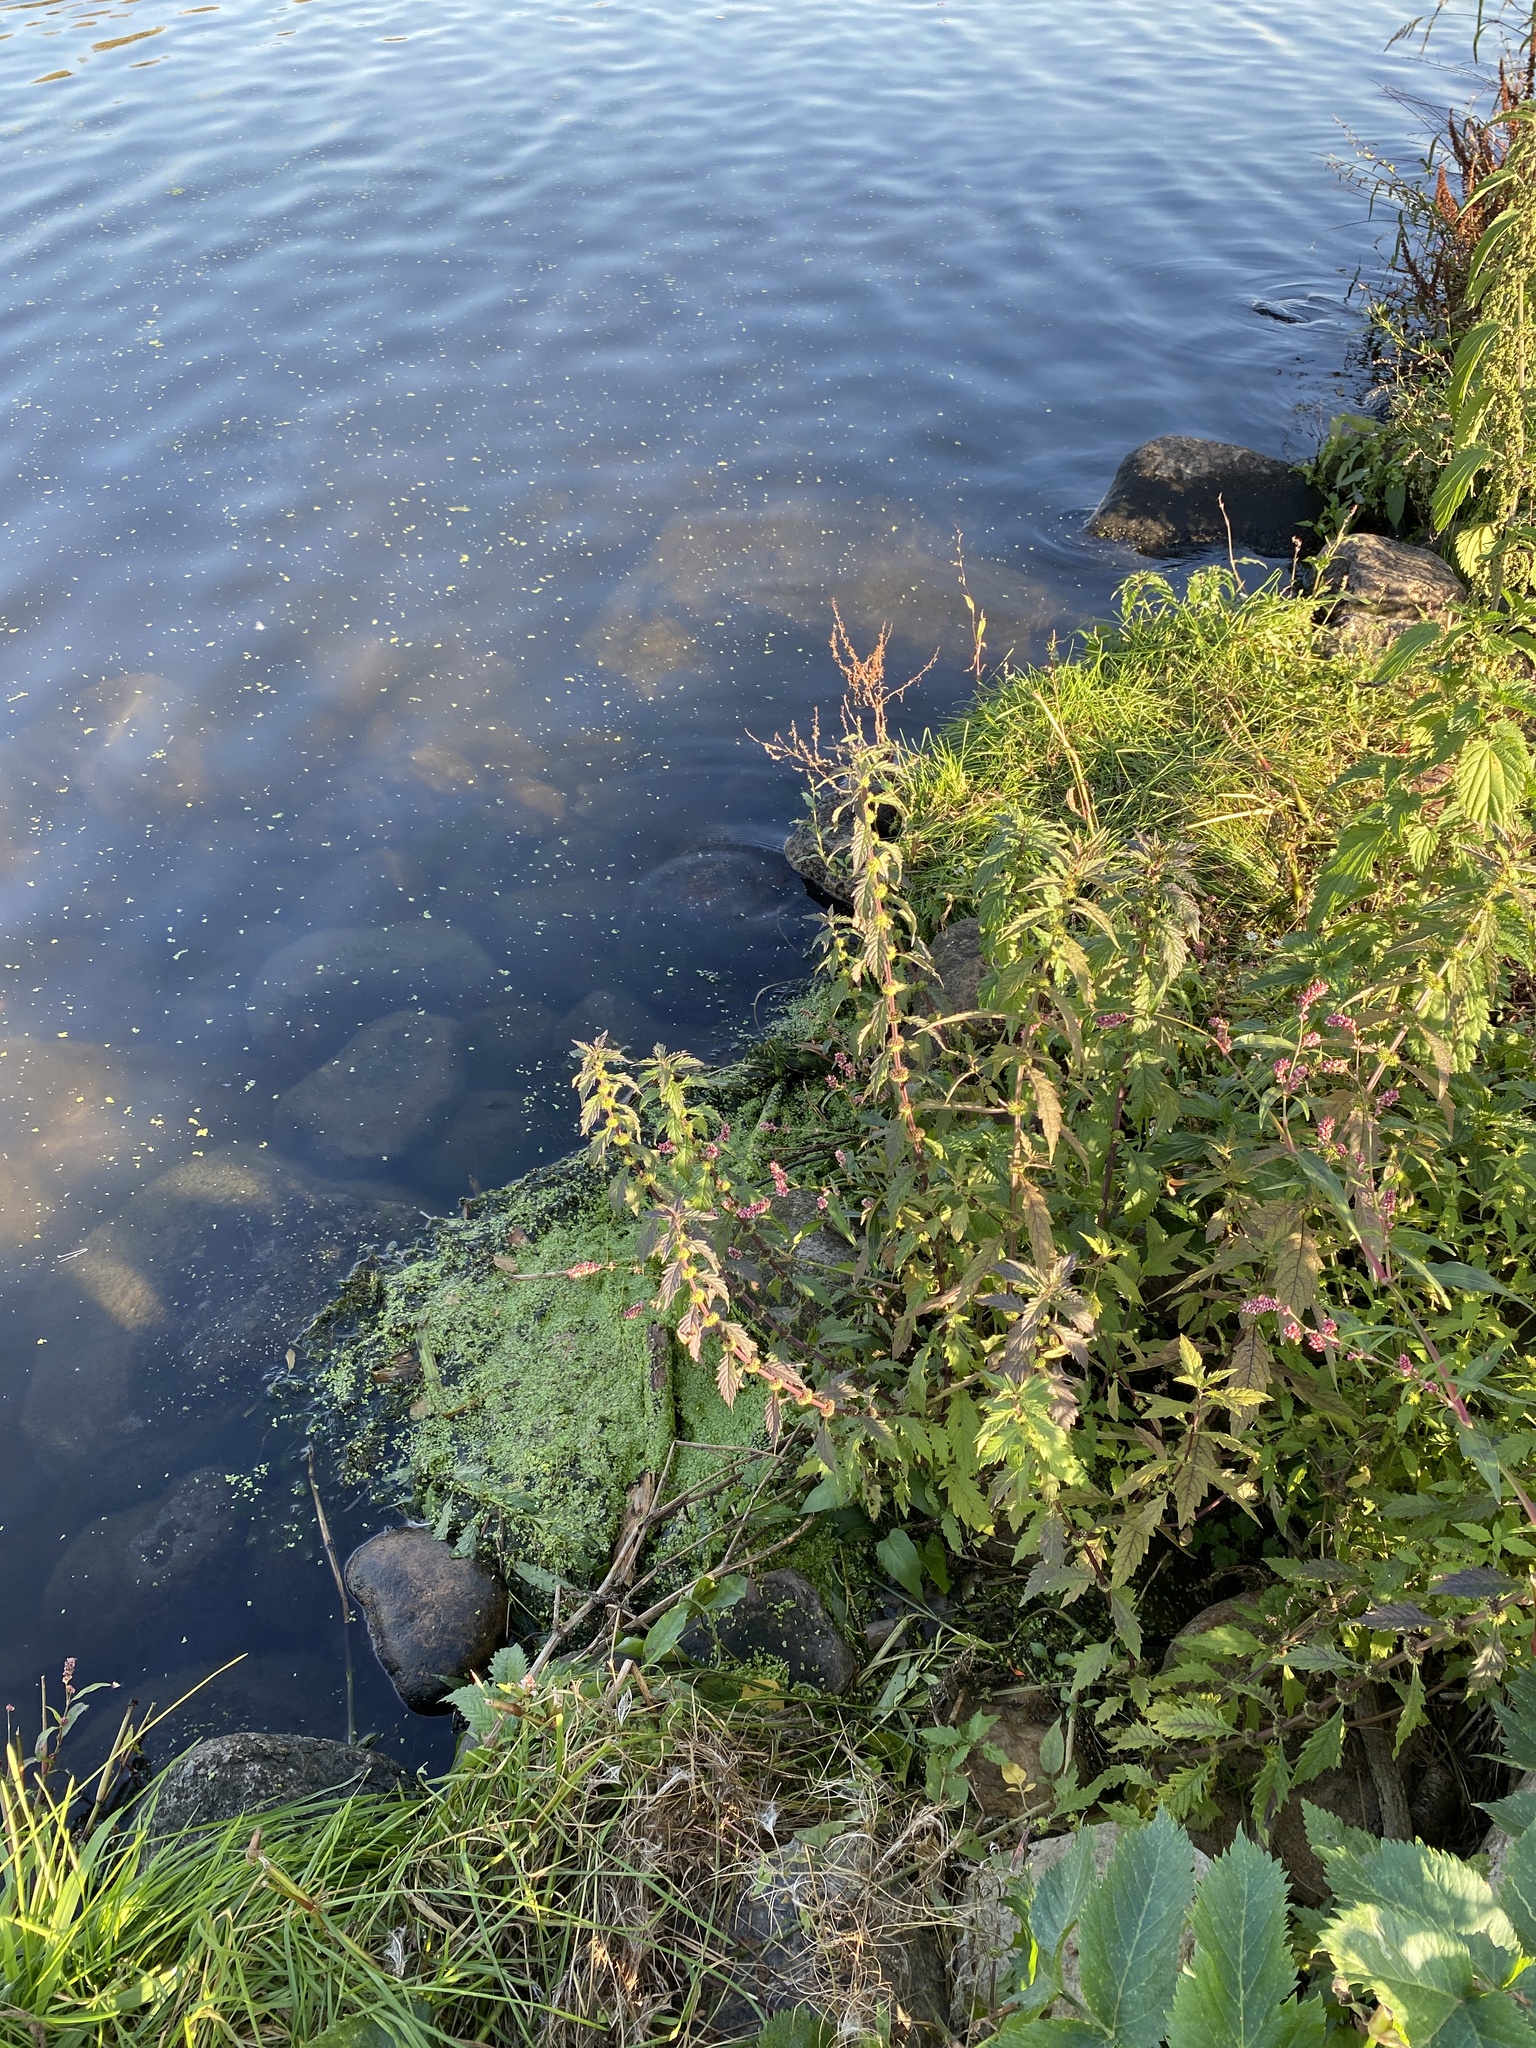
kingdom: Plantae
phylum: Tracheophyta
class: Magnoliopsida
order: Lamiales
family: Lamiaceae
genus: Lycopus
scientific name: Lycopus europaeus
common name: European bugleweed
